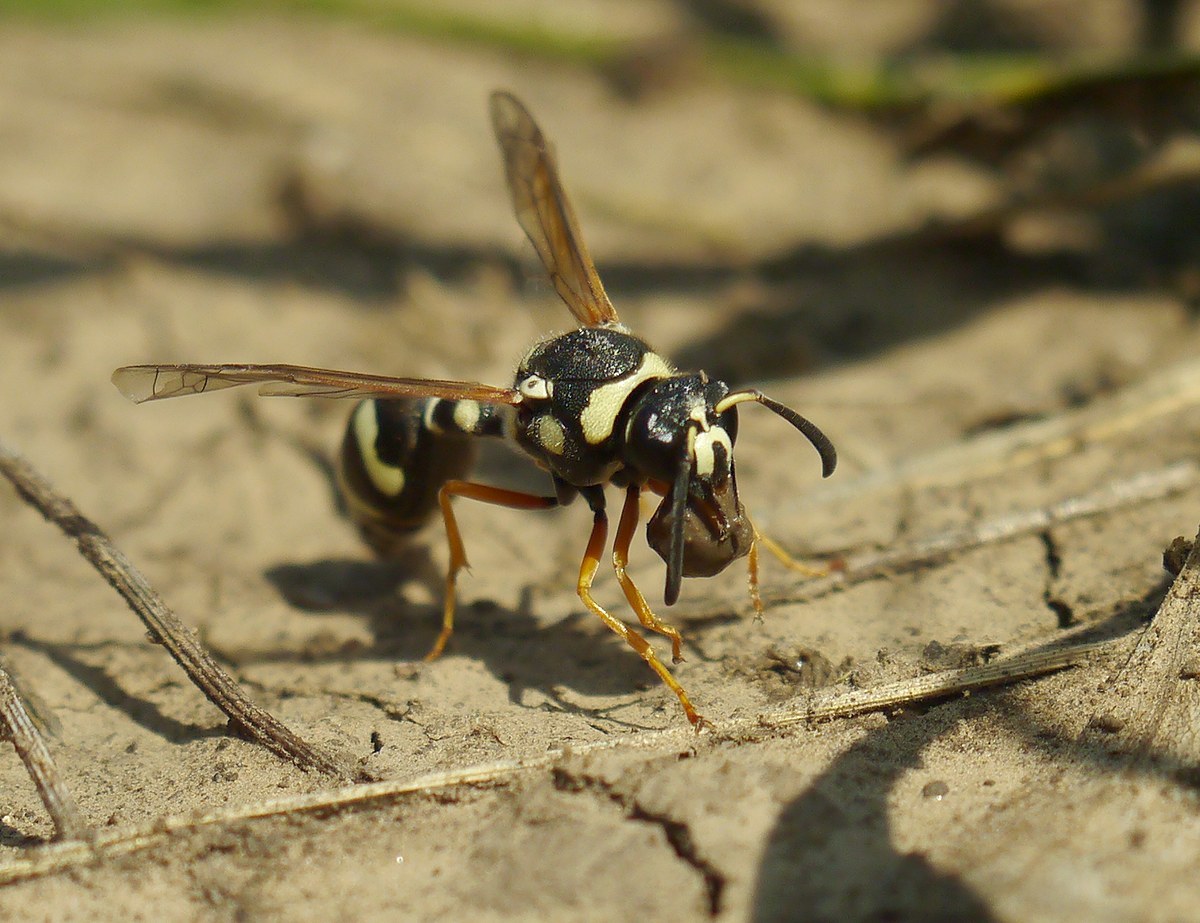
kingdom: Animalia
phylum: Arthropoda
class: Insecta
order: Hymenoptera
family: Vespidae
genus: Eumenes
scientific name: Eumenes sareptanus
